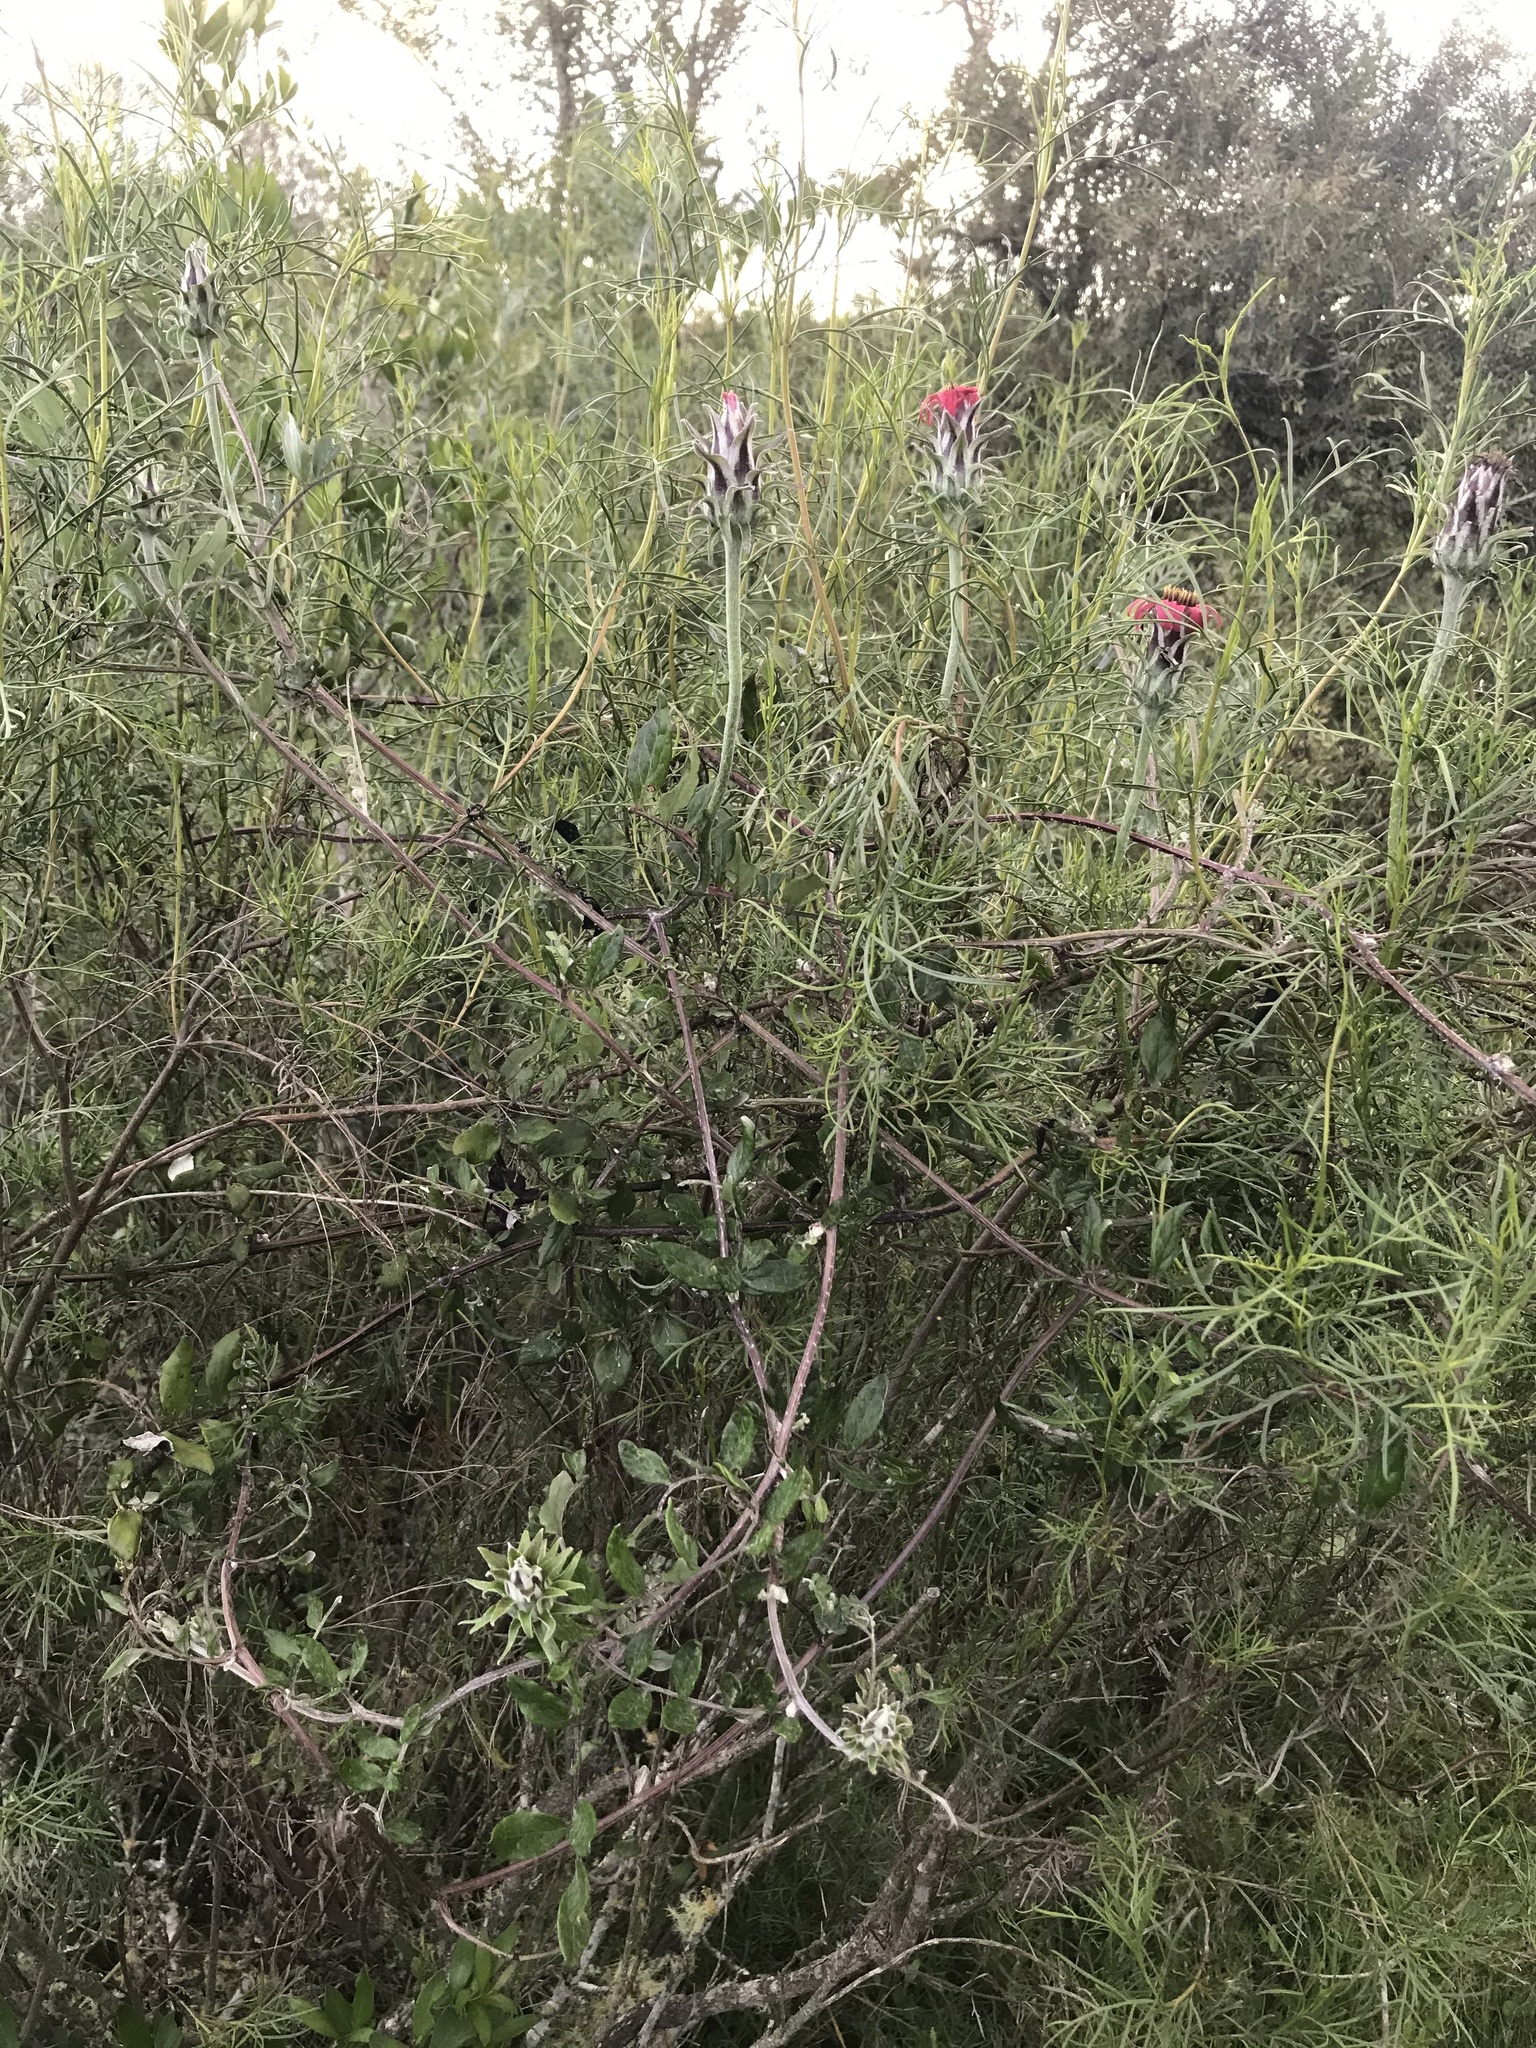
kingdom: Plantae
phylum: Tracheophyta
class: Magnoliopsida
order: Asterales
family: Asteraceae
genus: Mutisia
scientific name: Mutisia coccinea
